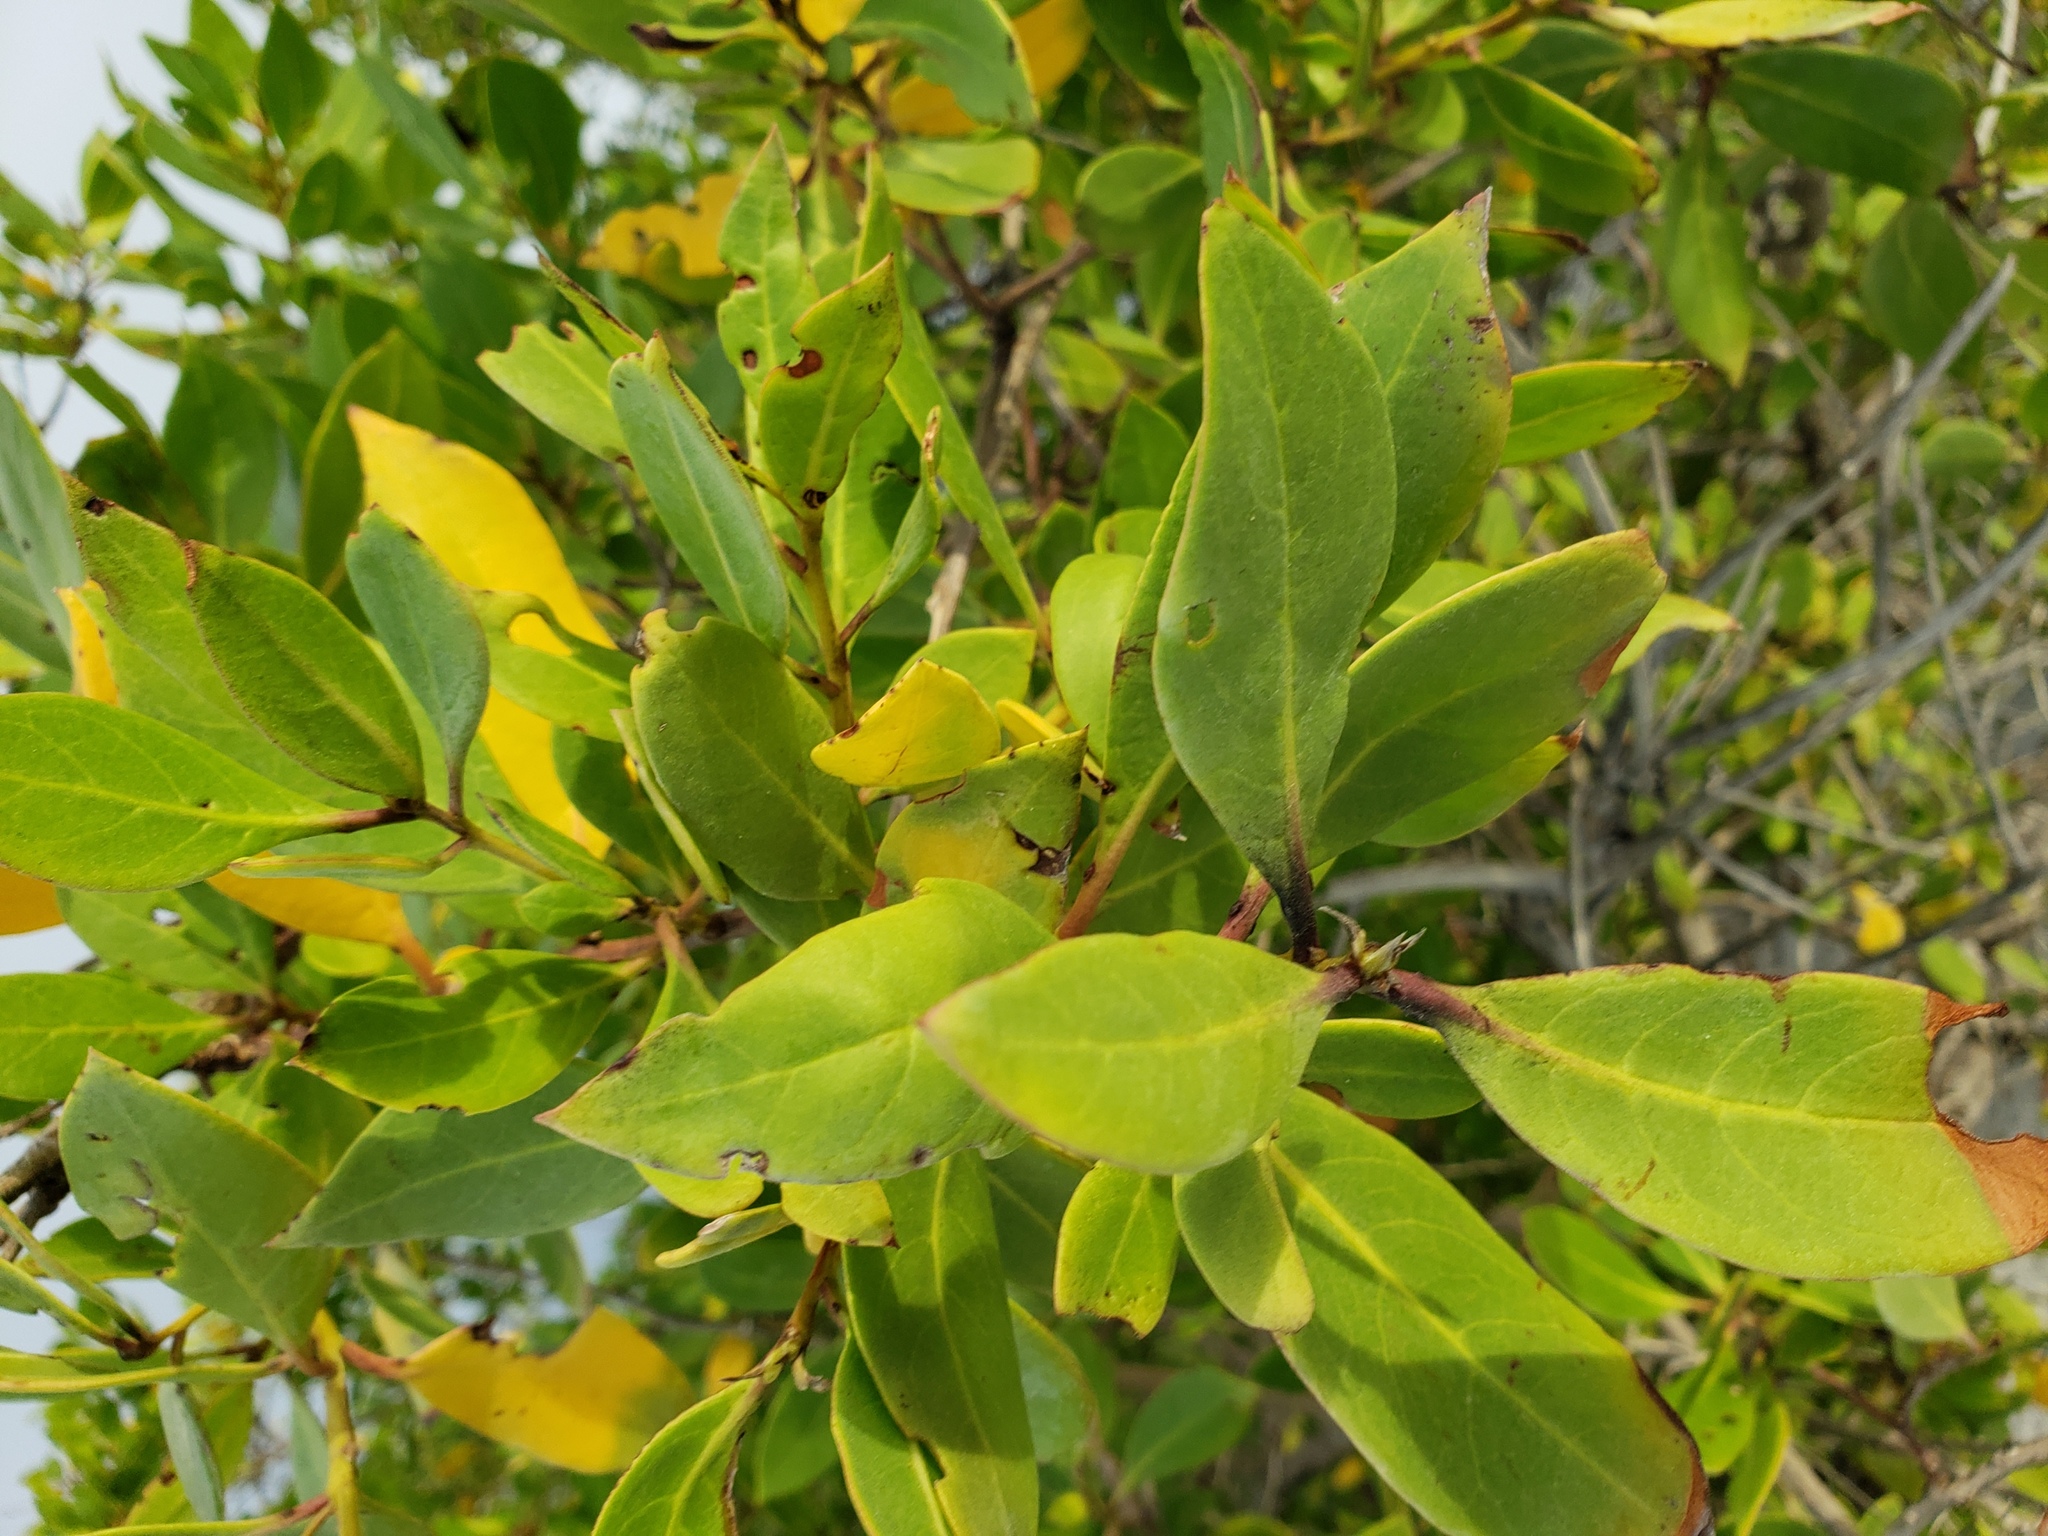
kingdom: Plantae
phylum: Tracheophyta
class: Magnoliopsida
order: Malpighiales
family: Rhizophoraceae
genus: Rhizophora
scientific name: Rhizophora mangle
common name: Red mangrove
